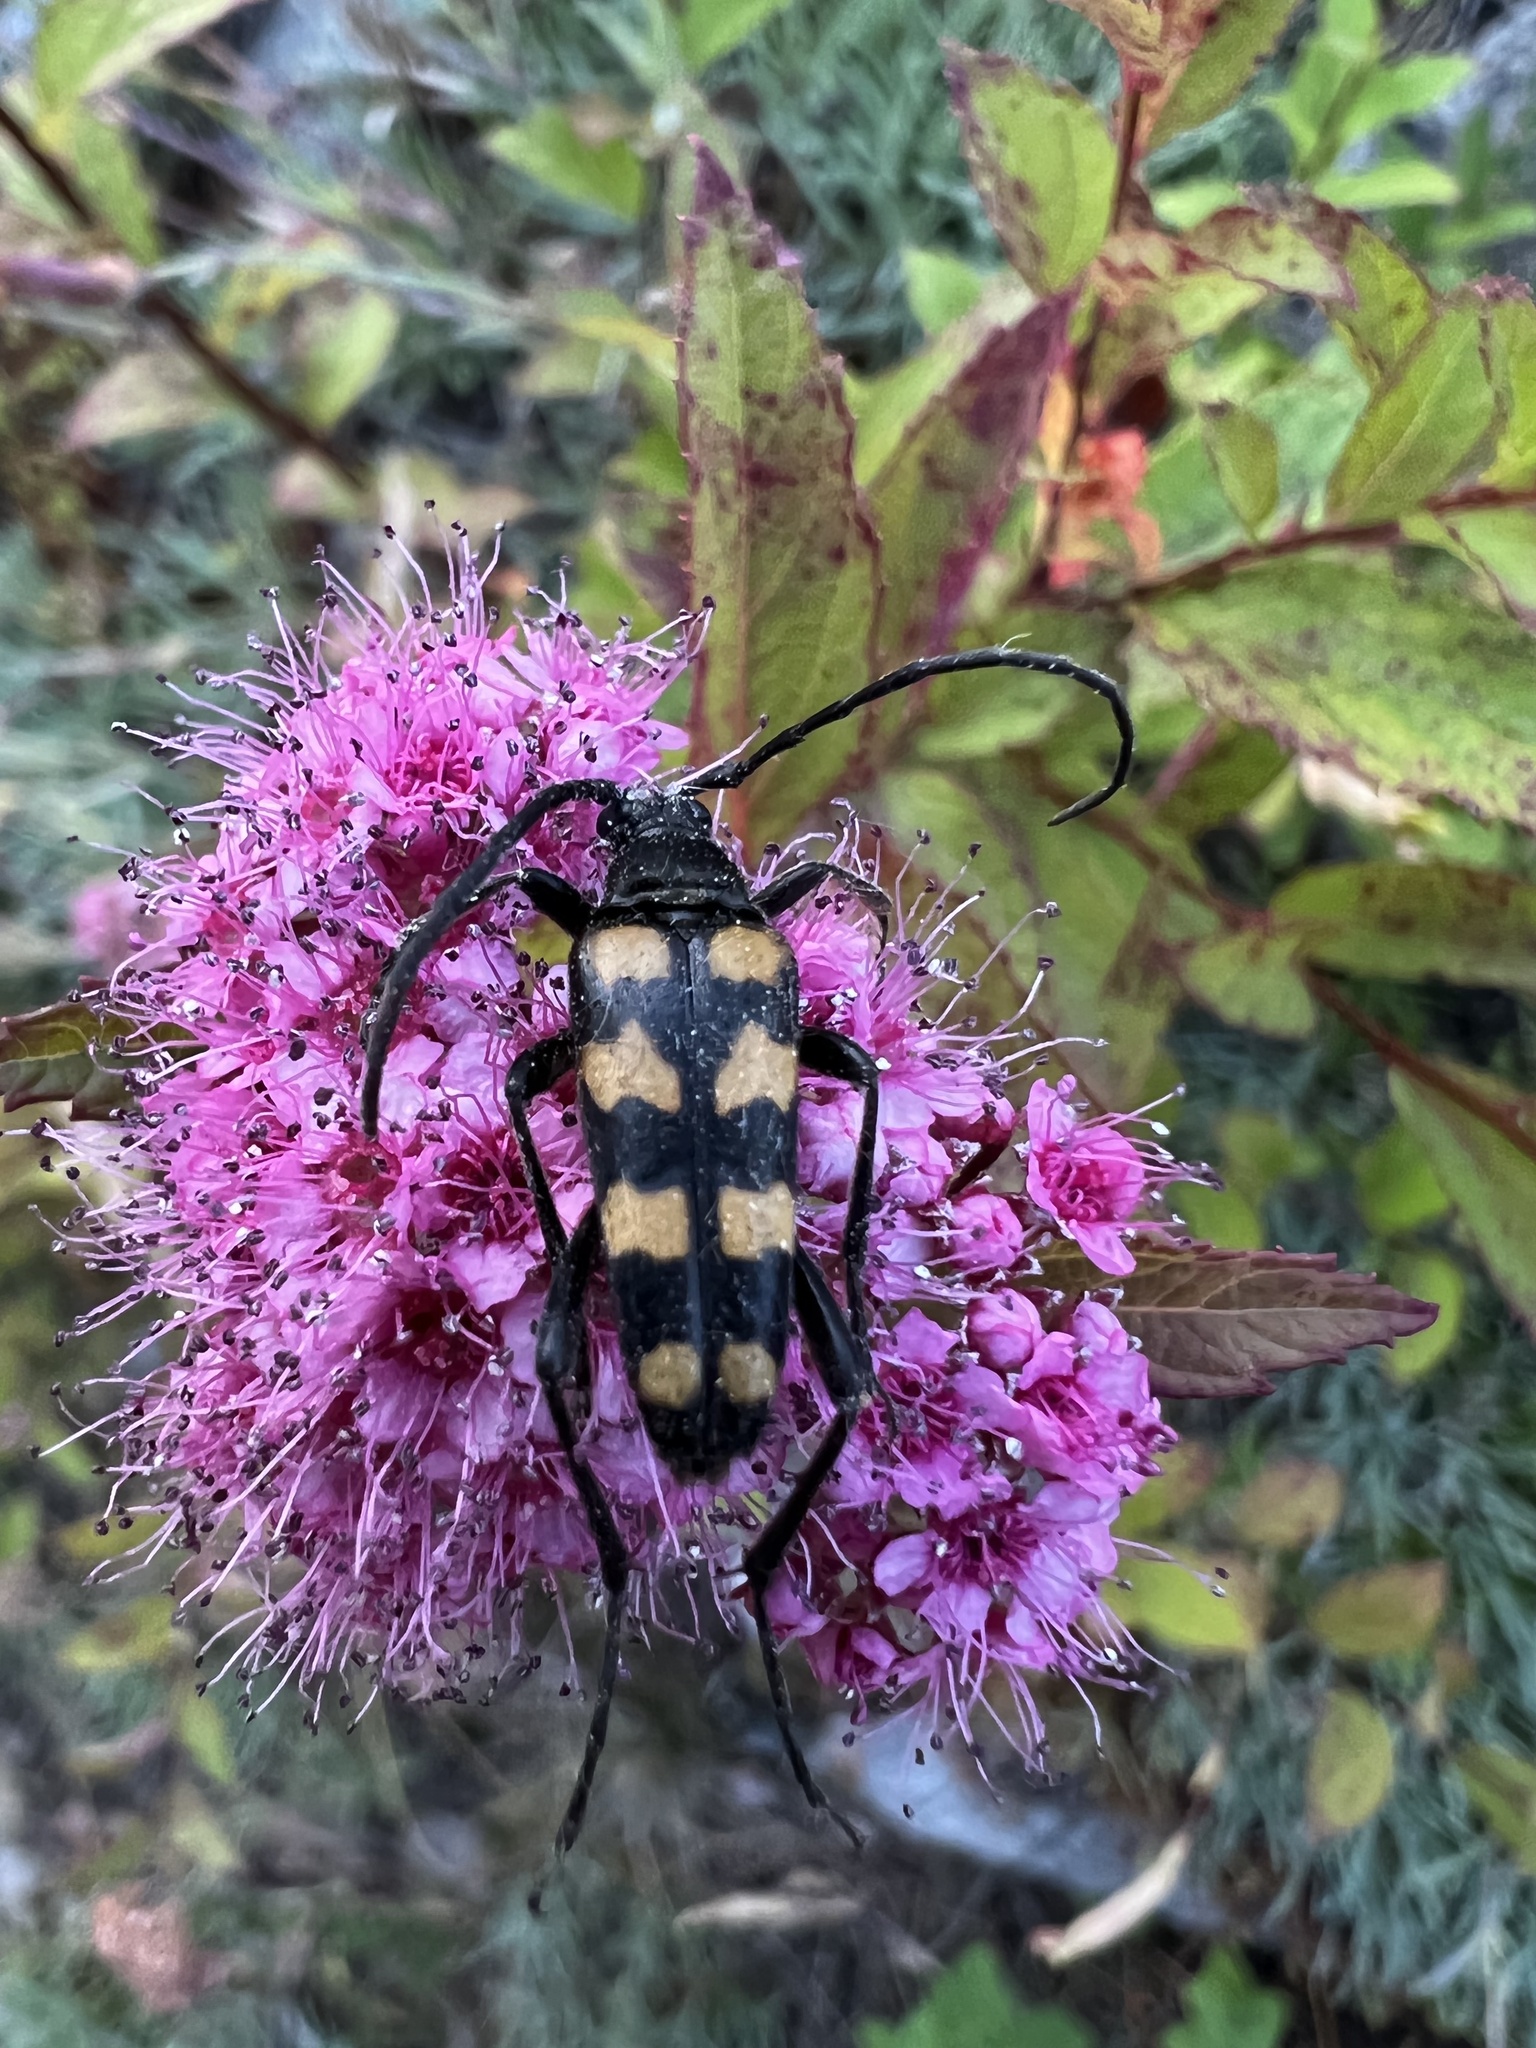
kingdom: Animalia
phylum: Arthropoda
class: Insecta
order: Coleoptera
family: Cerambycidae
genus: Leptura
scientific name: Leptura quadrifasciata
